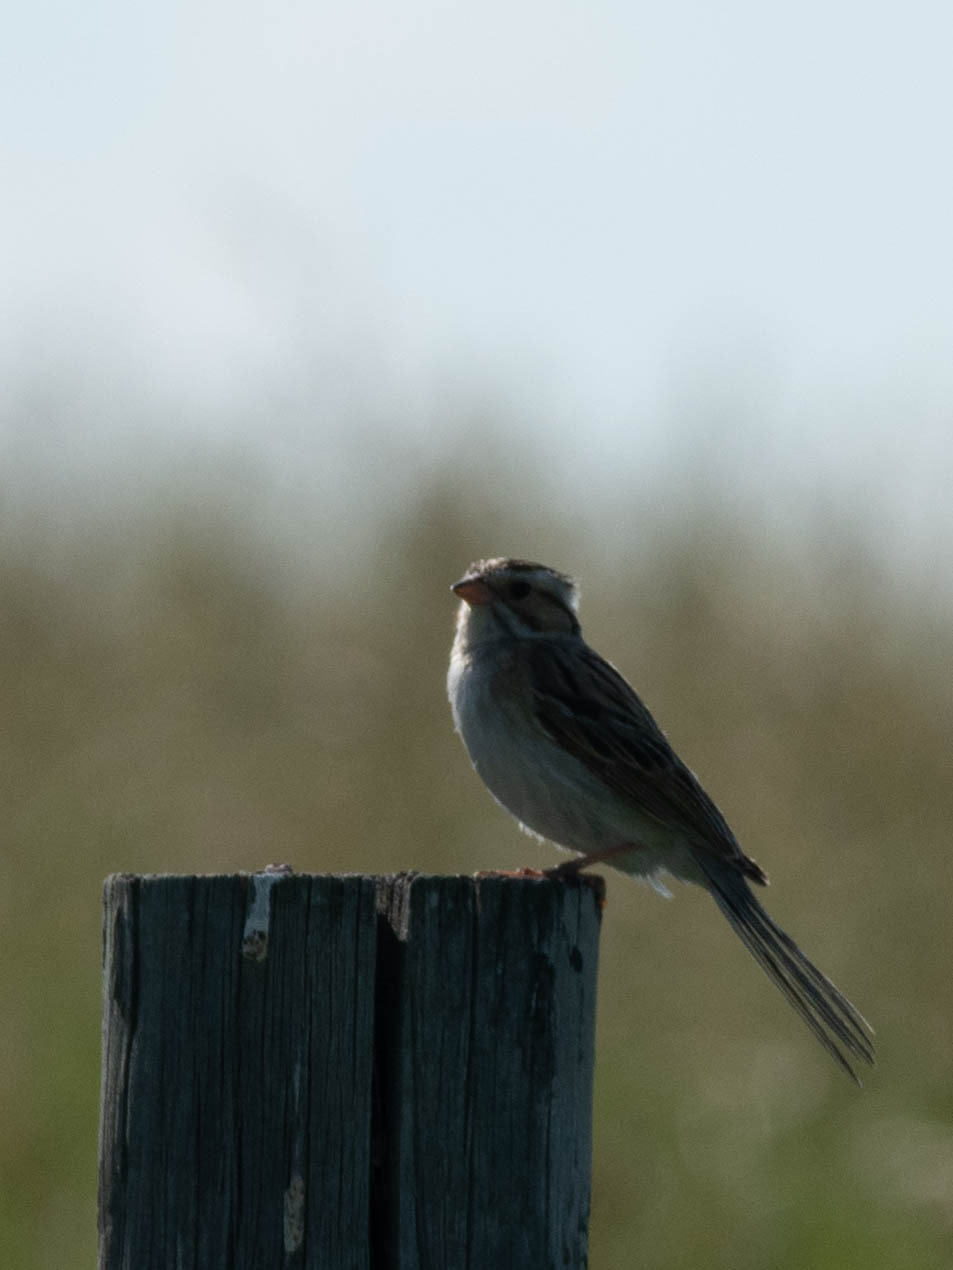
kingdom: Animalia
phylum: Chordata
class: Aves
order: Passeriformes
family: Passerellidae
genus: Spizella
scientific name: Spizella pallida
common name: Clay-colored sparrow
